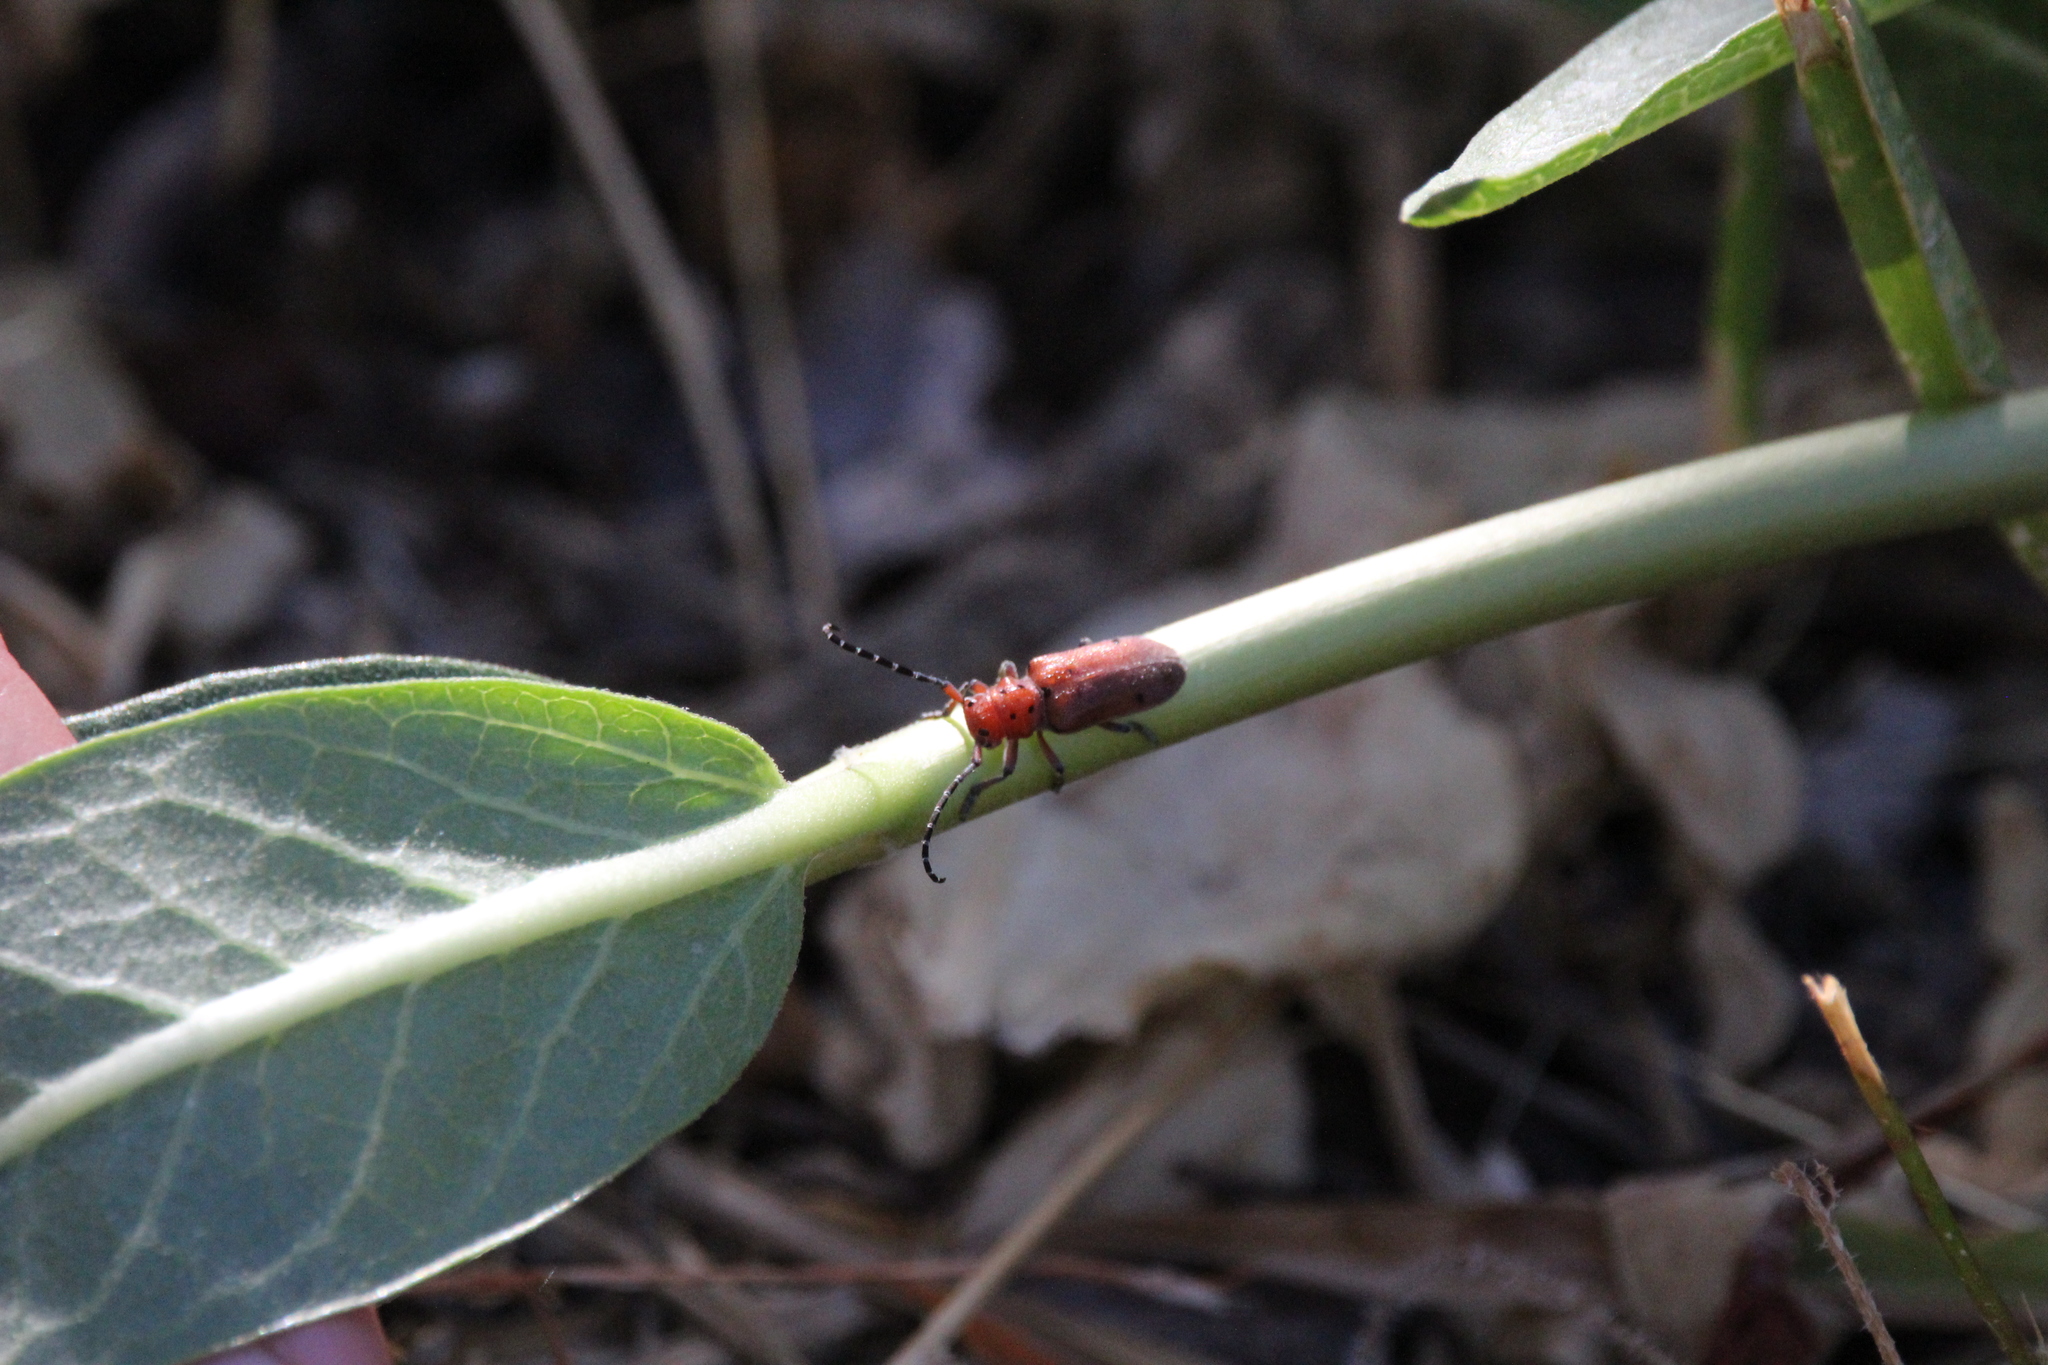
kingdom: Animalia
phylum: Arthropoda
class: Insecta
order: Coleoptera
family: Cerambycidae
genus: Tetraopes
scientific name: Tetraopes femoratus
